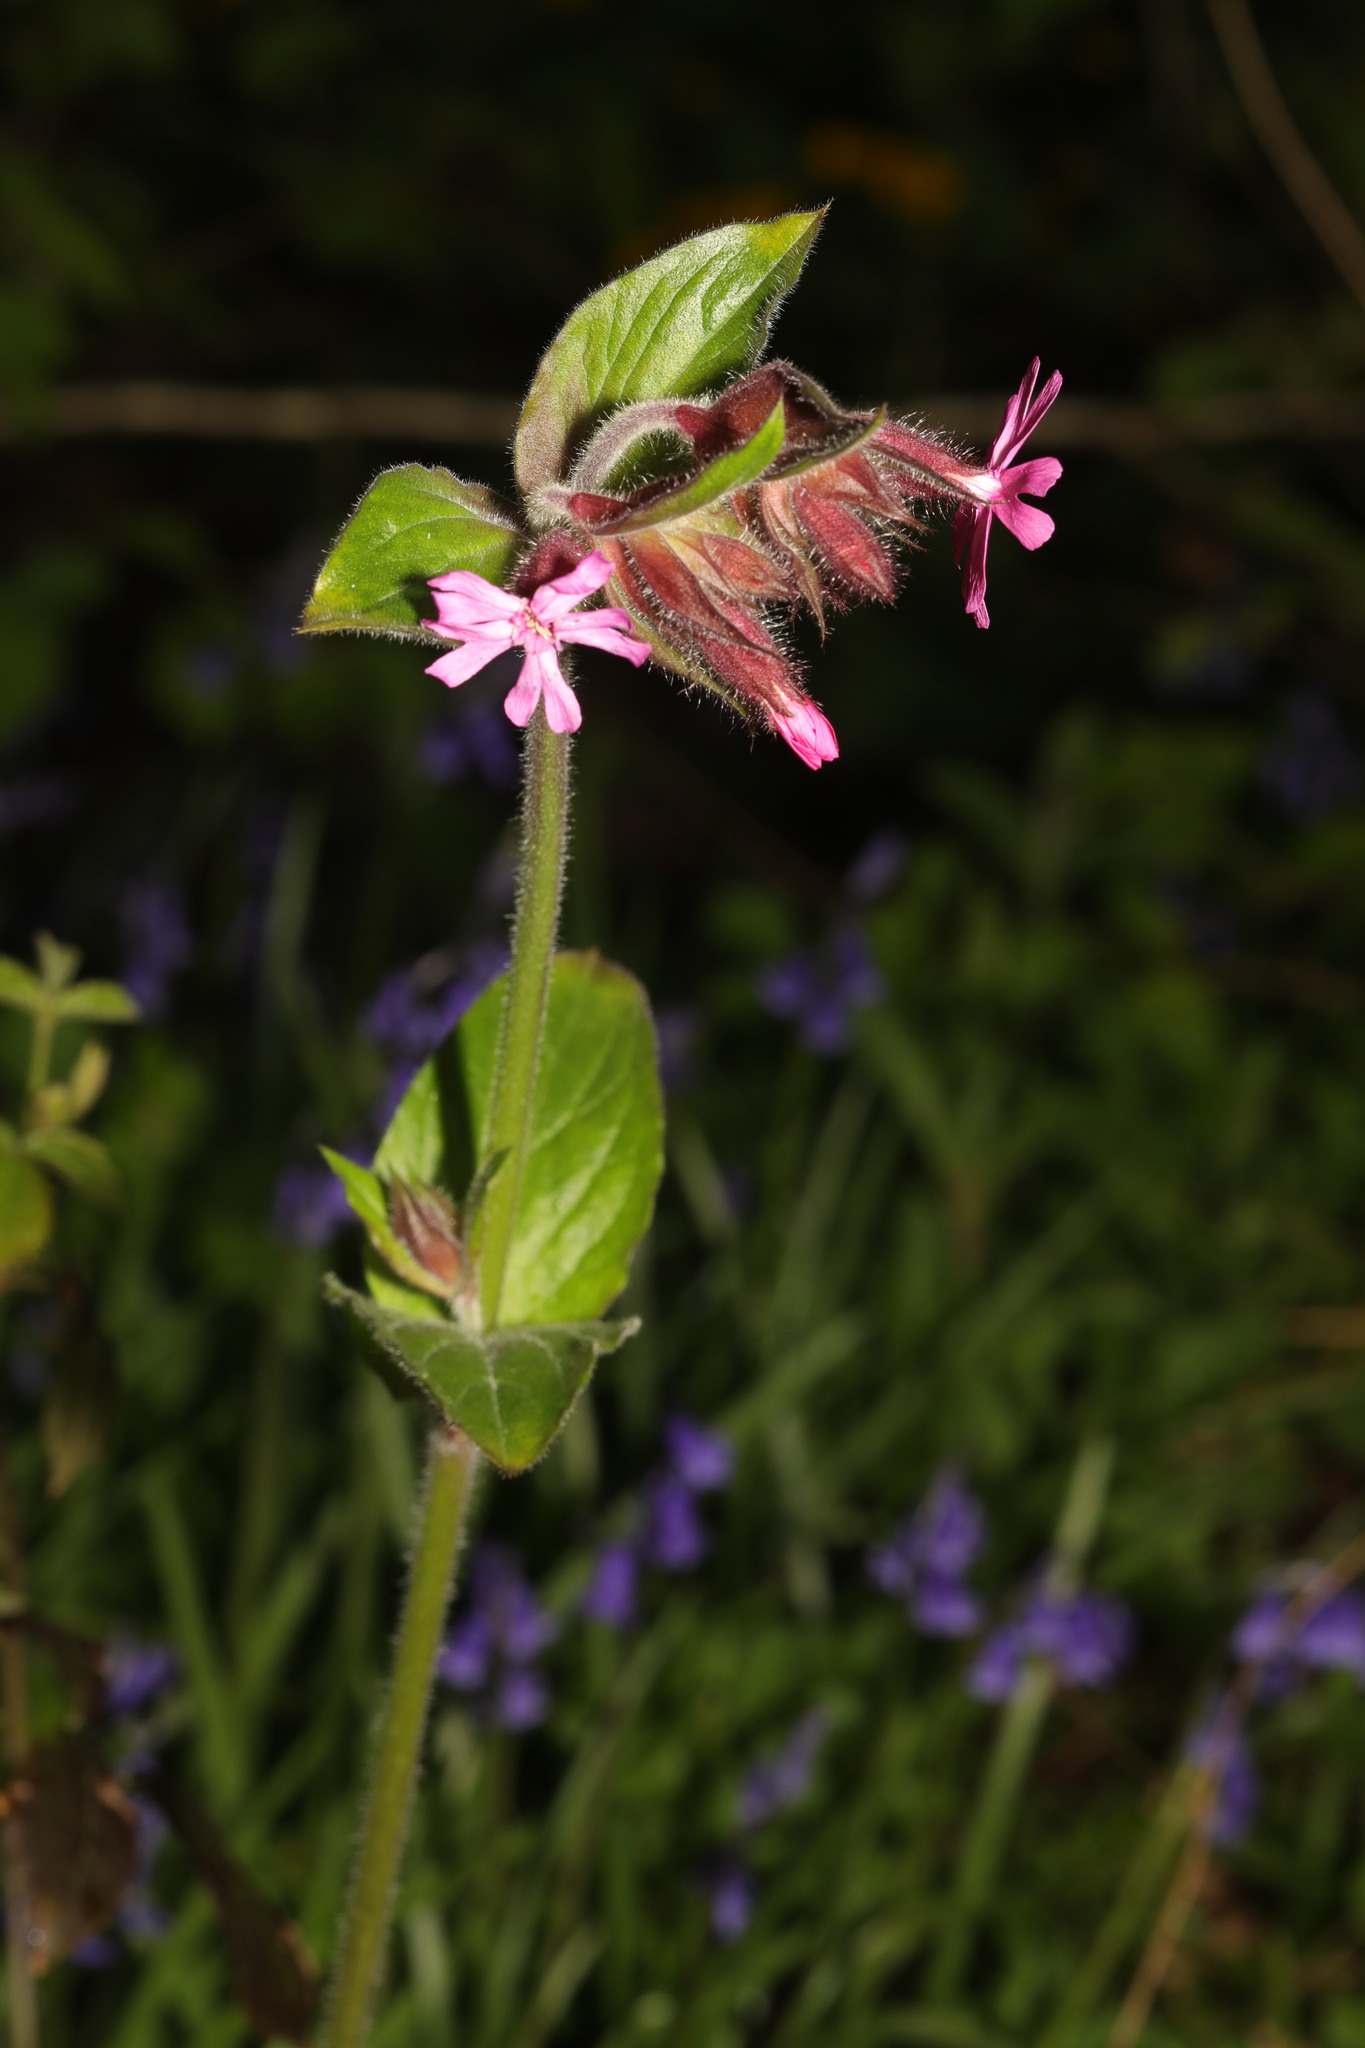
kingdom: Plantae
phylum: Tracheophyta
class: Magnoliopsida
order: Caryophyllales
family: Caryophyllaceae
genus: Silene
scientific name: Silene dioica
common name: Red campion
